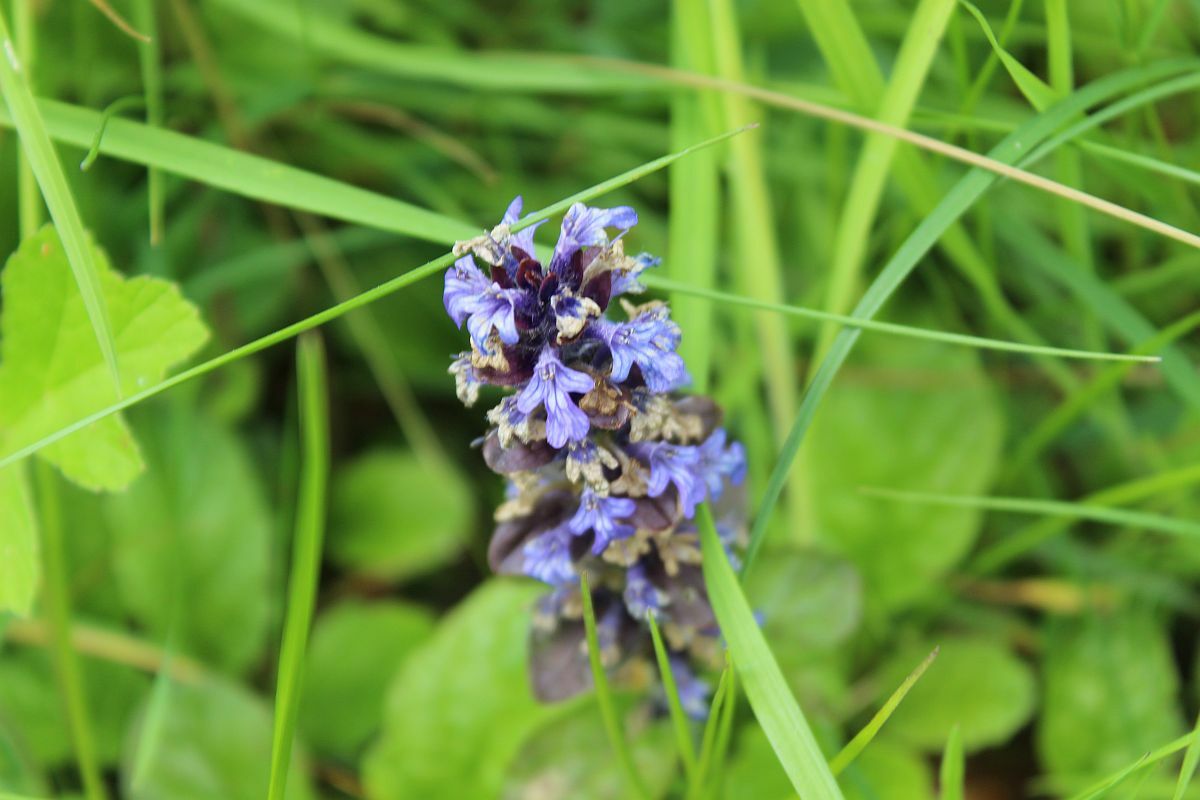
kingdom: Plantae
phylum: Tracheophyta
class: Magnoliopsida
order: Lamiales
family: Lamiaceae
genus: Ajuga
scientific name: Ajuga reptans
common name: Bugle
